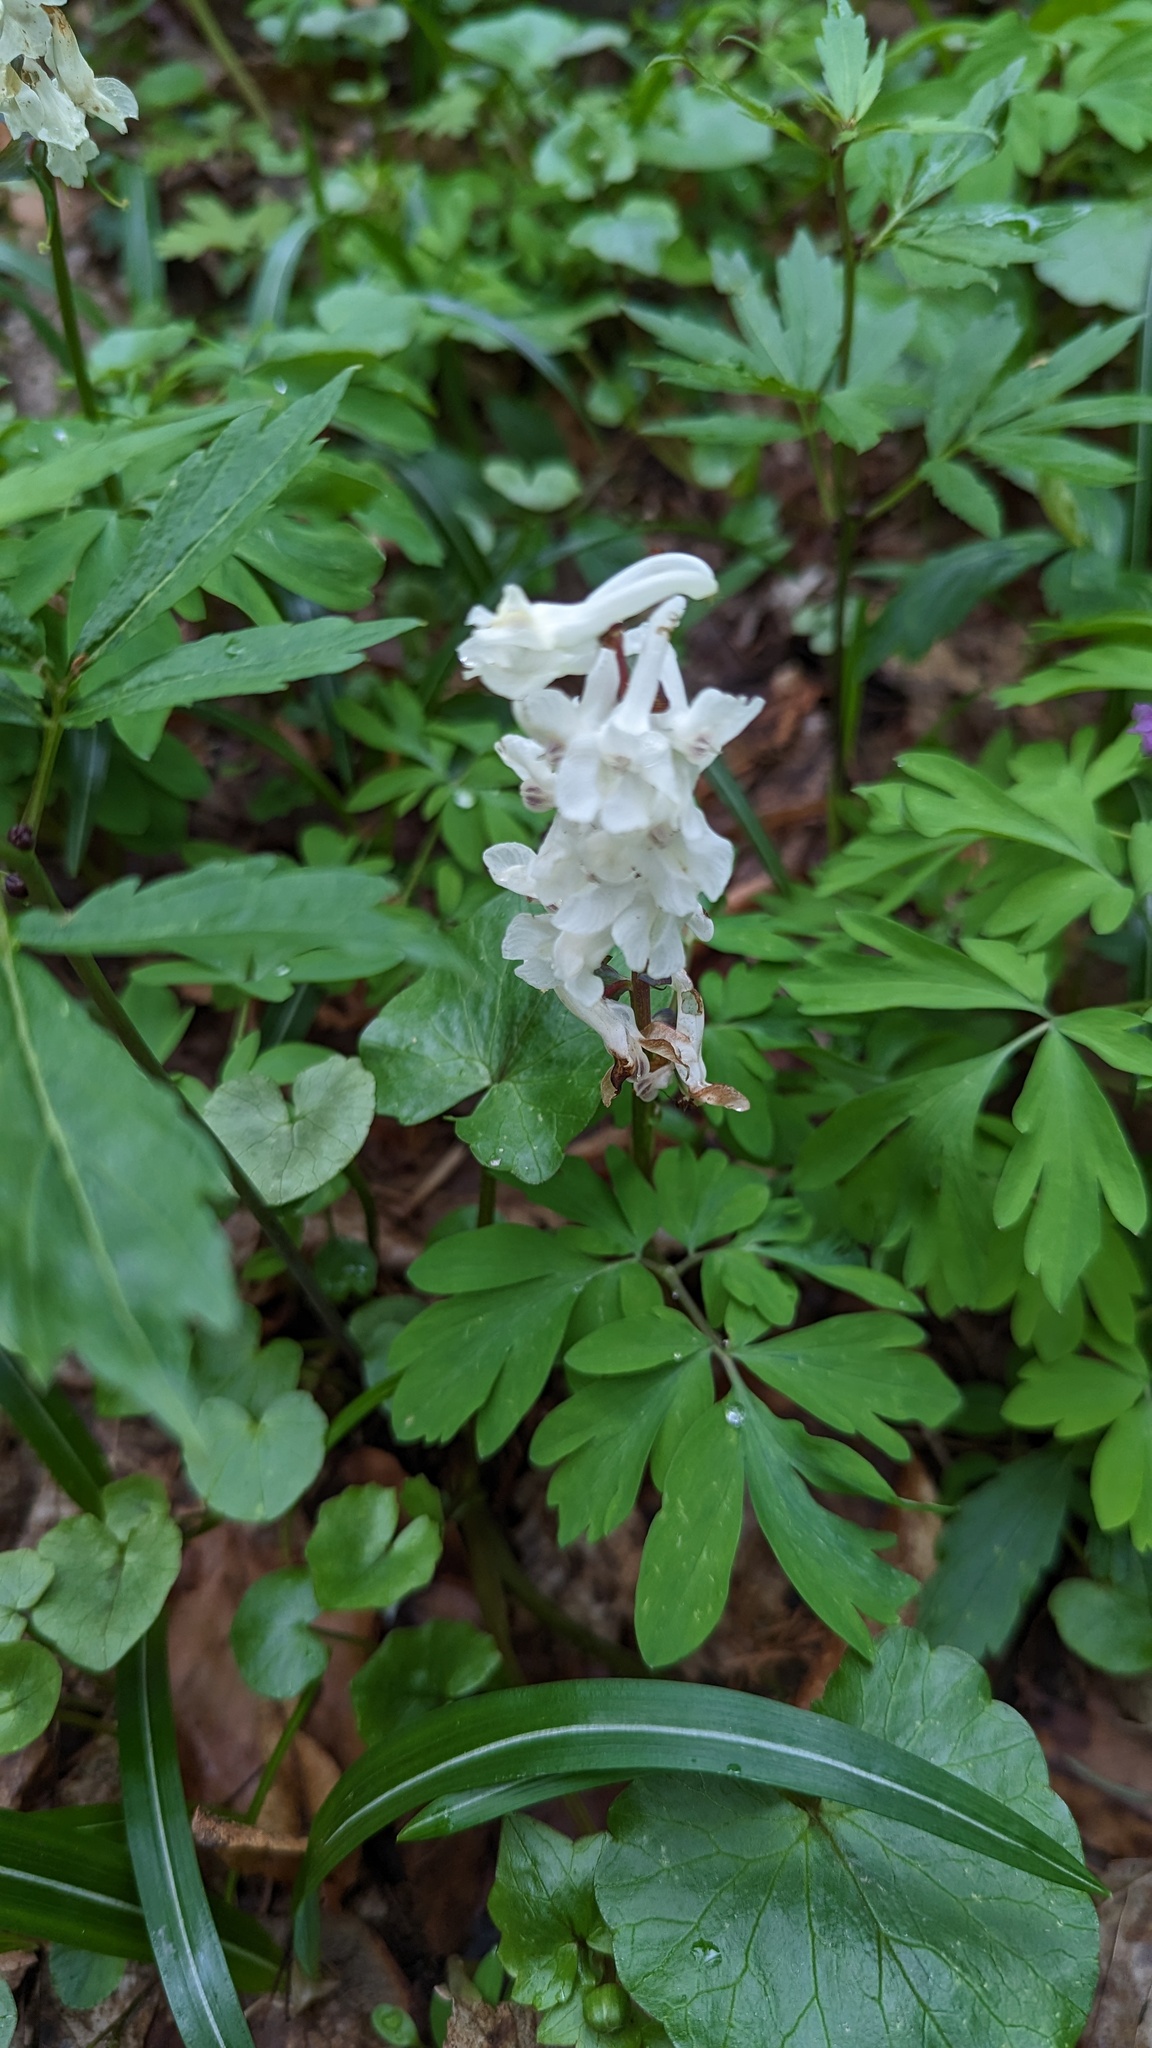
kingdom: Plantae
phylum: Tracheophyta
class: Magnoliopsida
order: Ranunculales
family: Papaveraceae
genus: Corydalis
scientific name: Corydalis cava
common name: Hollowroot
